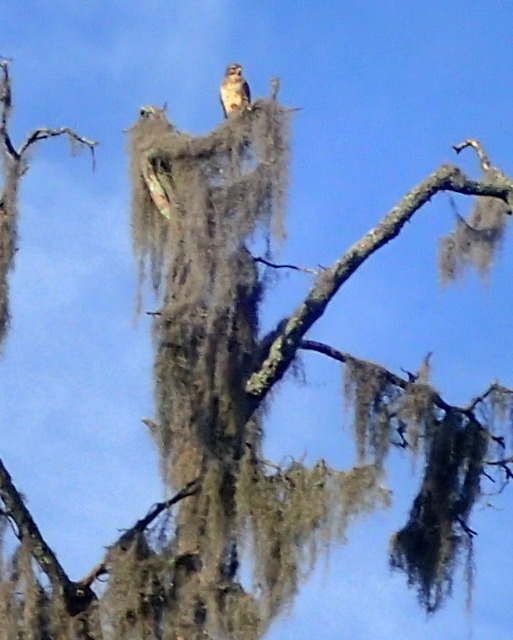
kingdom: Animalia
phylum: Chordata
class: Aves
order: Accipitriformes
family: Accipitridae
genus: Buteo
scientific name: Buteo jamaicensis
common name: Red-tailed hawk
